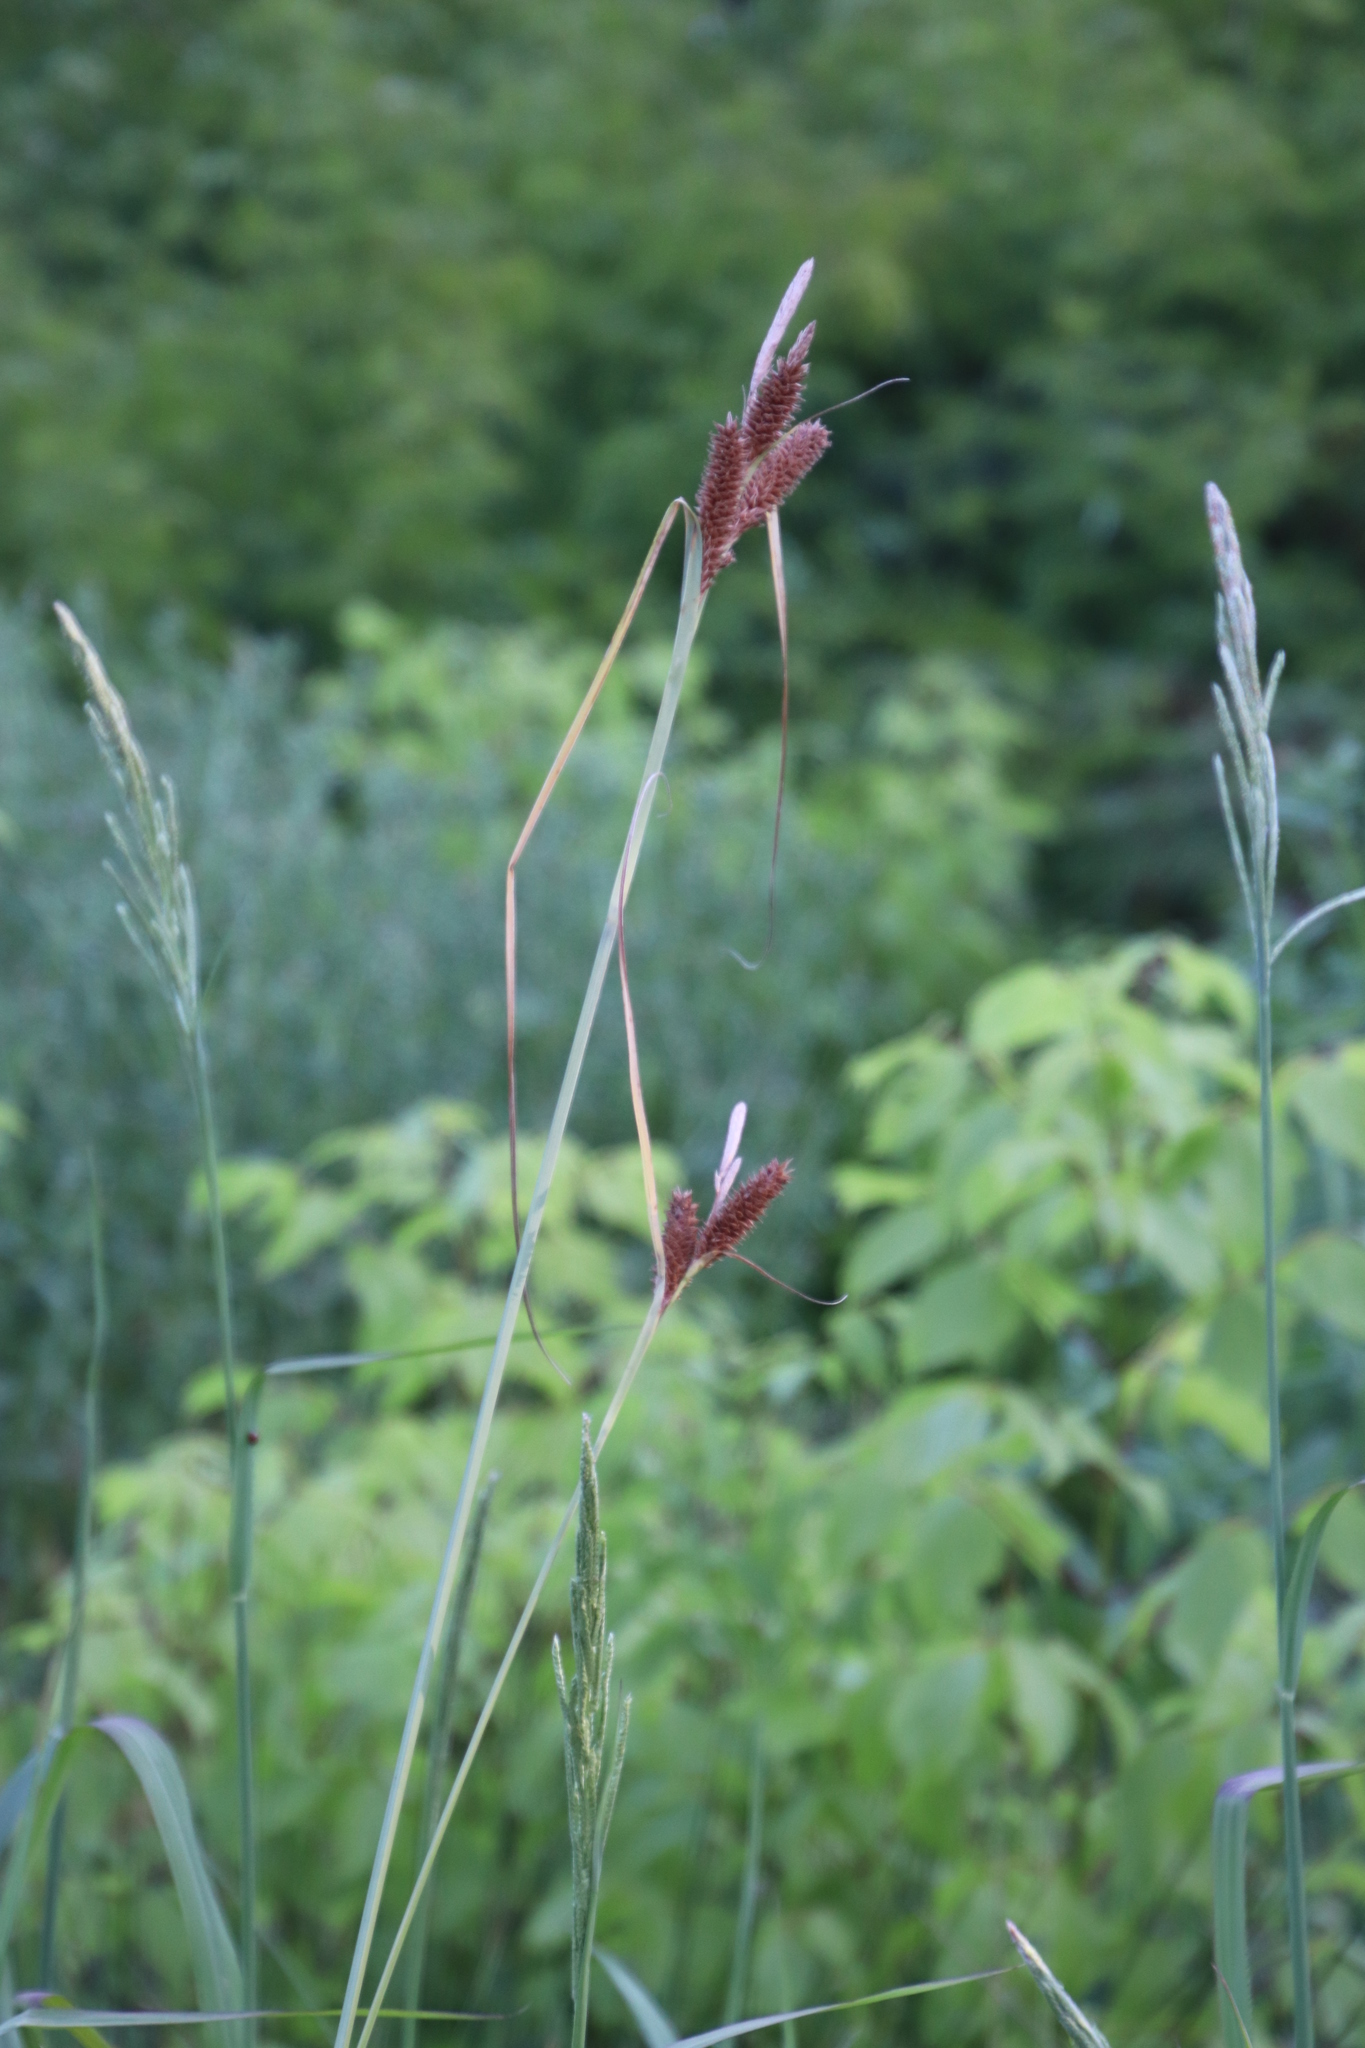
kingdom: Plantae
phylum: Tracheophyta
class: Liliopsida
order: Poales
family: Cyperaceae
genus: Carex
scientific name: Carex clavata
